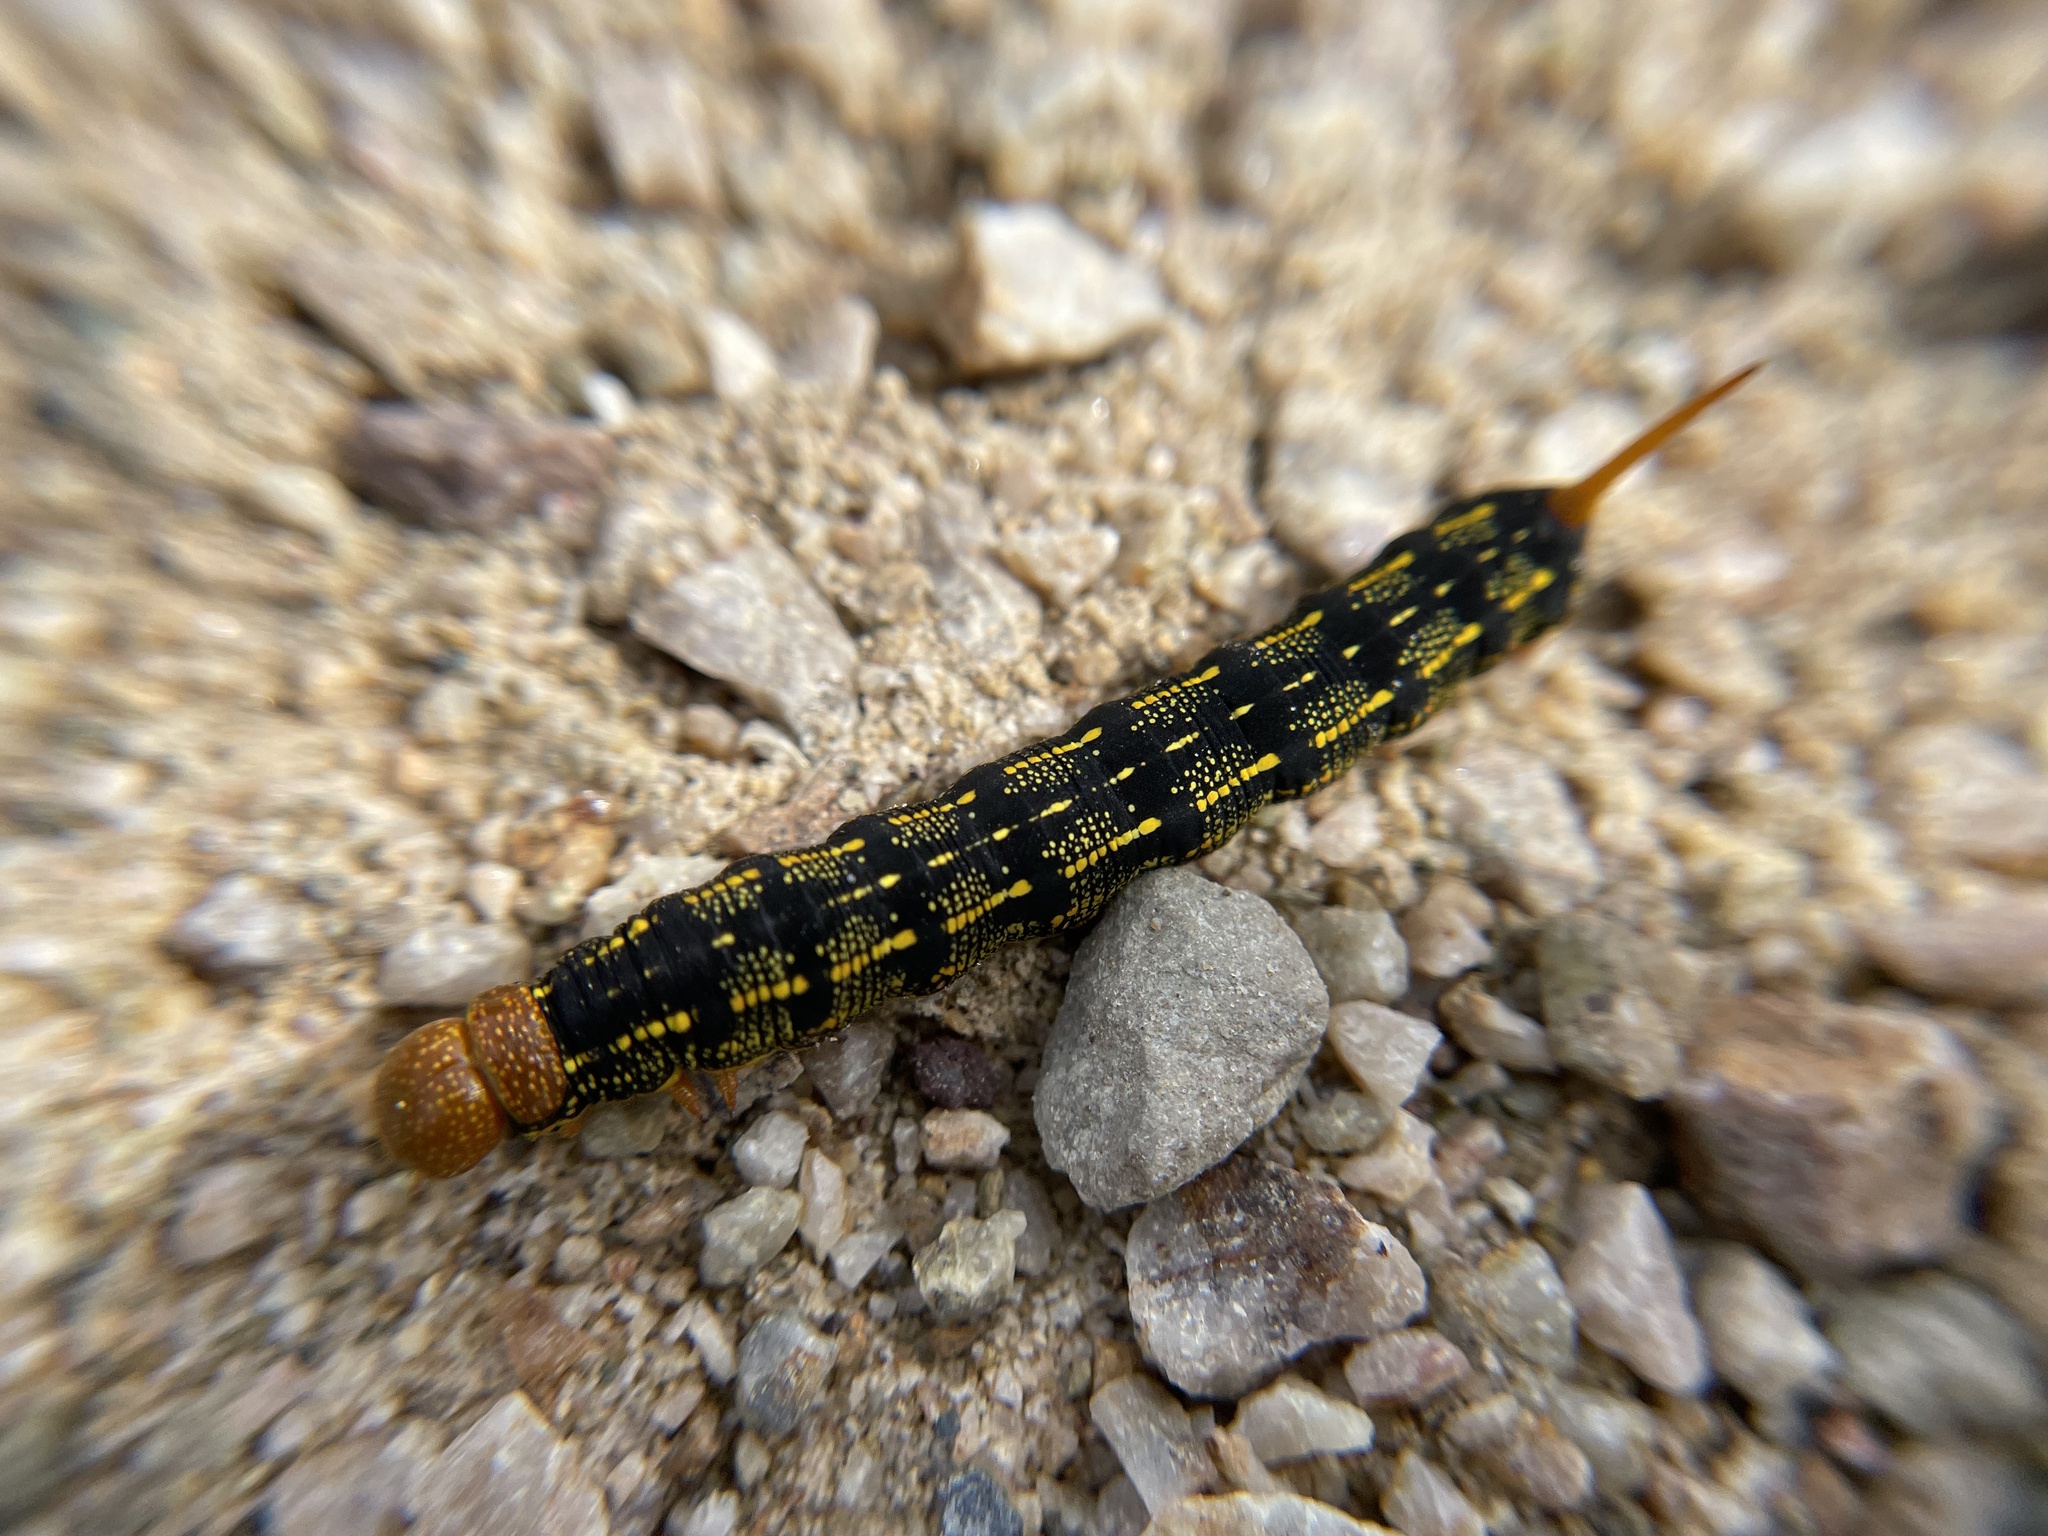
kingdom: Animalia
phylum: Arthropoda
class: Insecta
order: Lepidoptera
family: Sphingidae
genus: Hyles
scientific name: Hyles lineata
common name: White-lined sphinx
